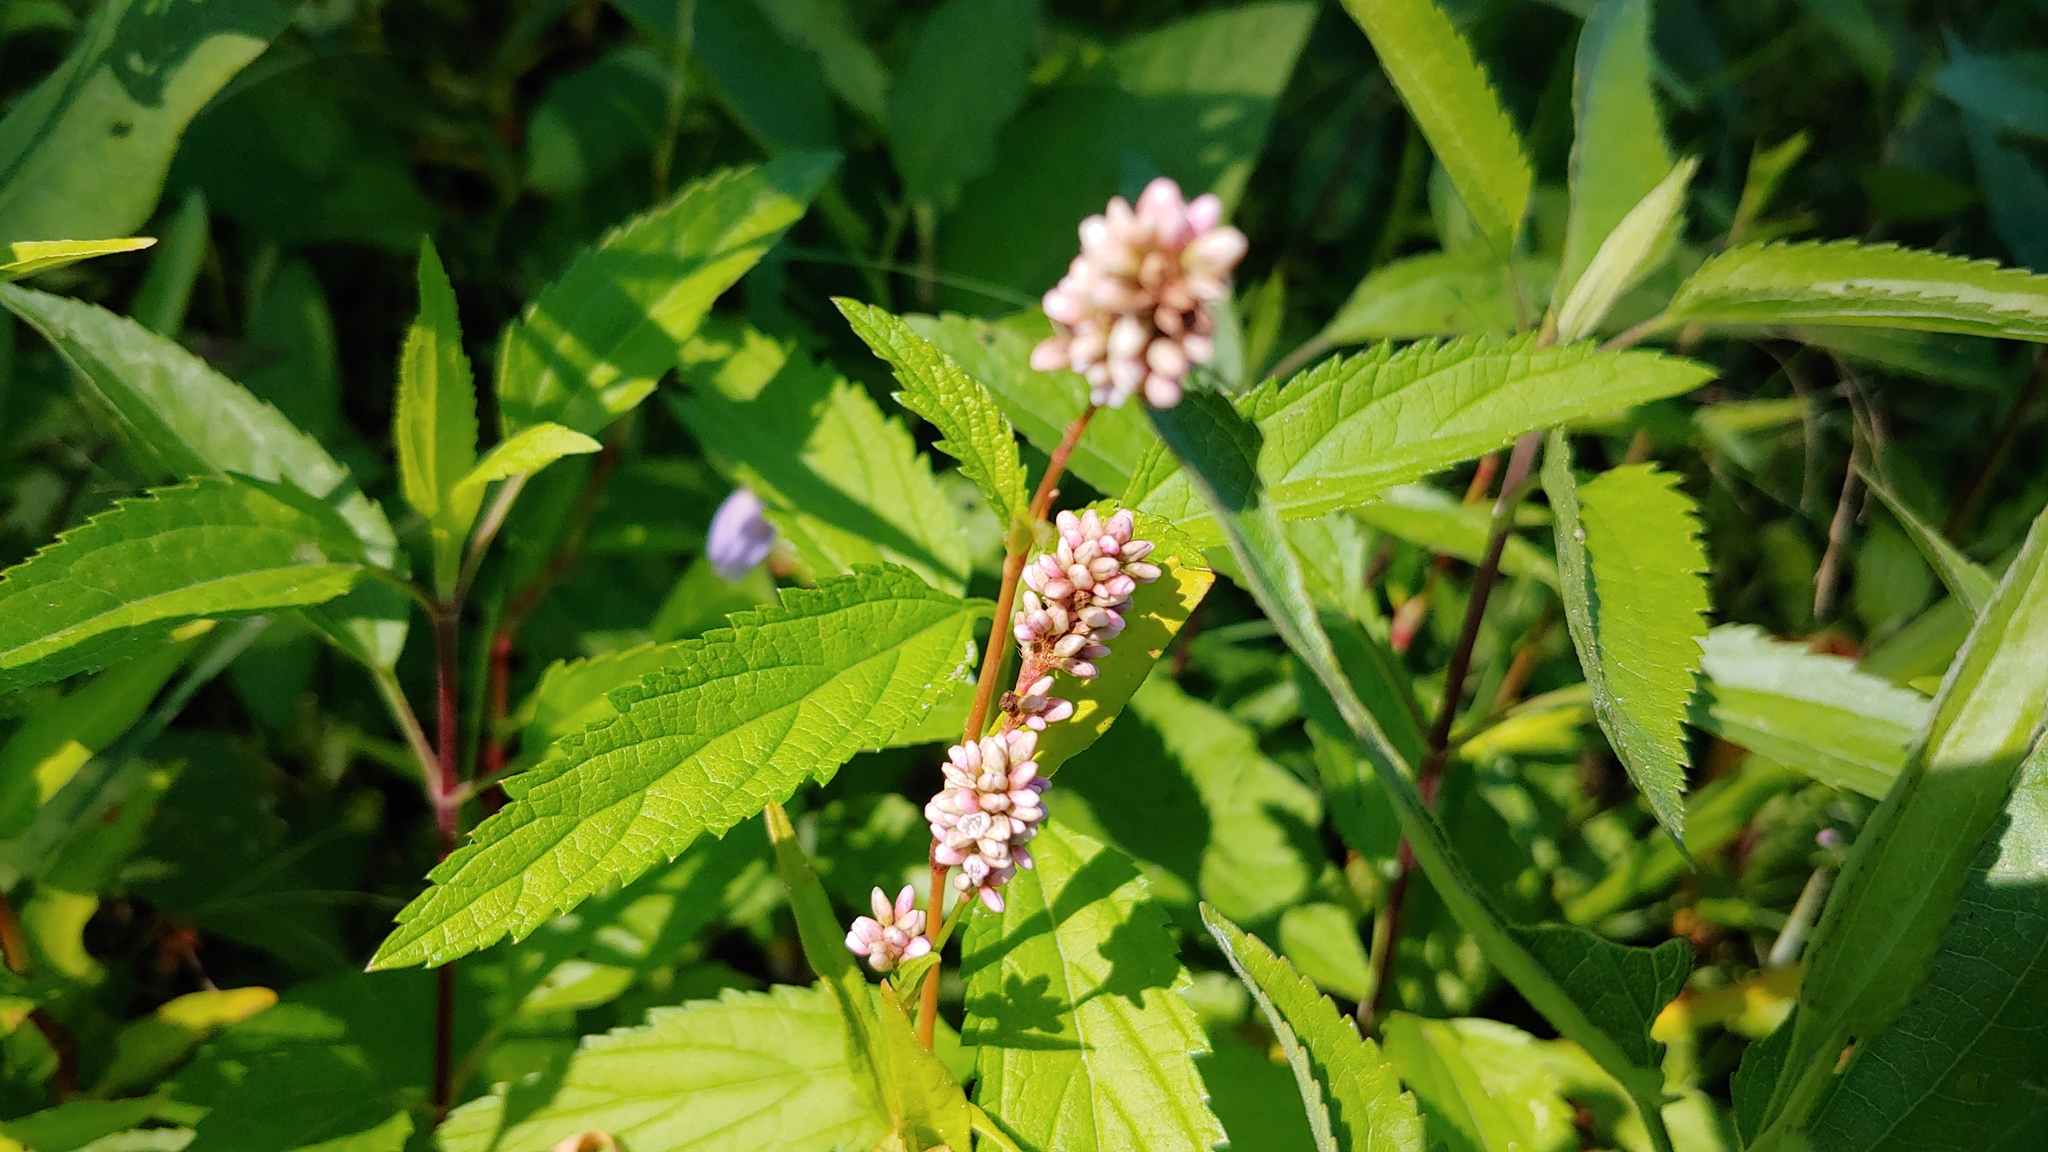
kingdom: Plantae
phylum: Tracheophyta
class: Magnoliopsida
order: Caryophyllales
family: Polygonaceae
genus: Persicaria
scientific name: Persicaria maculosa
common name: Redshank
